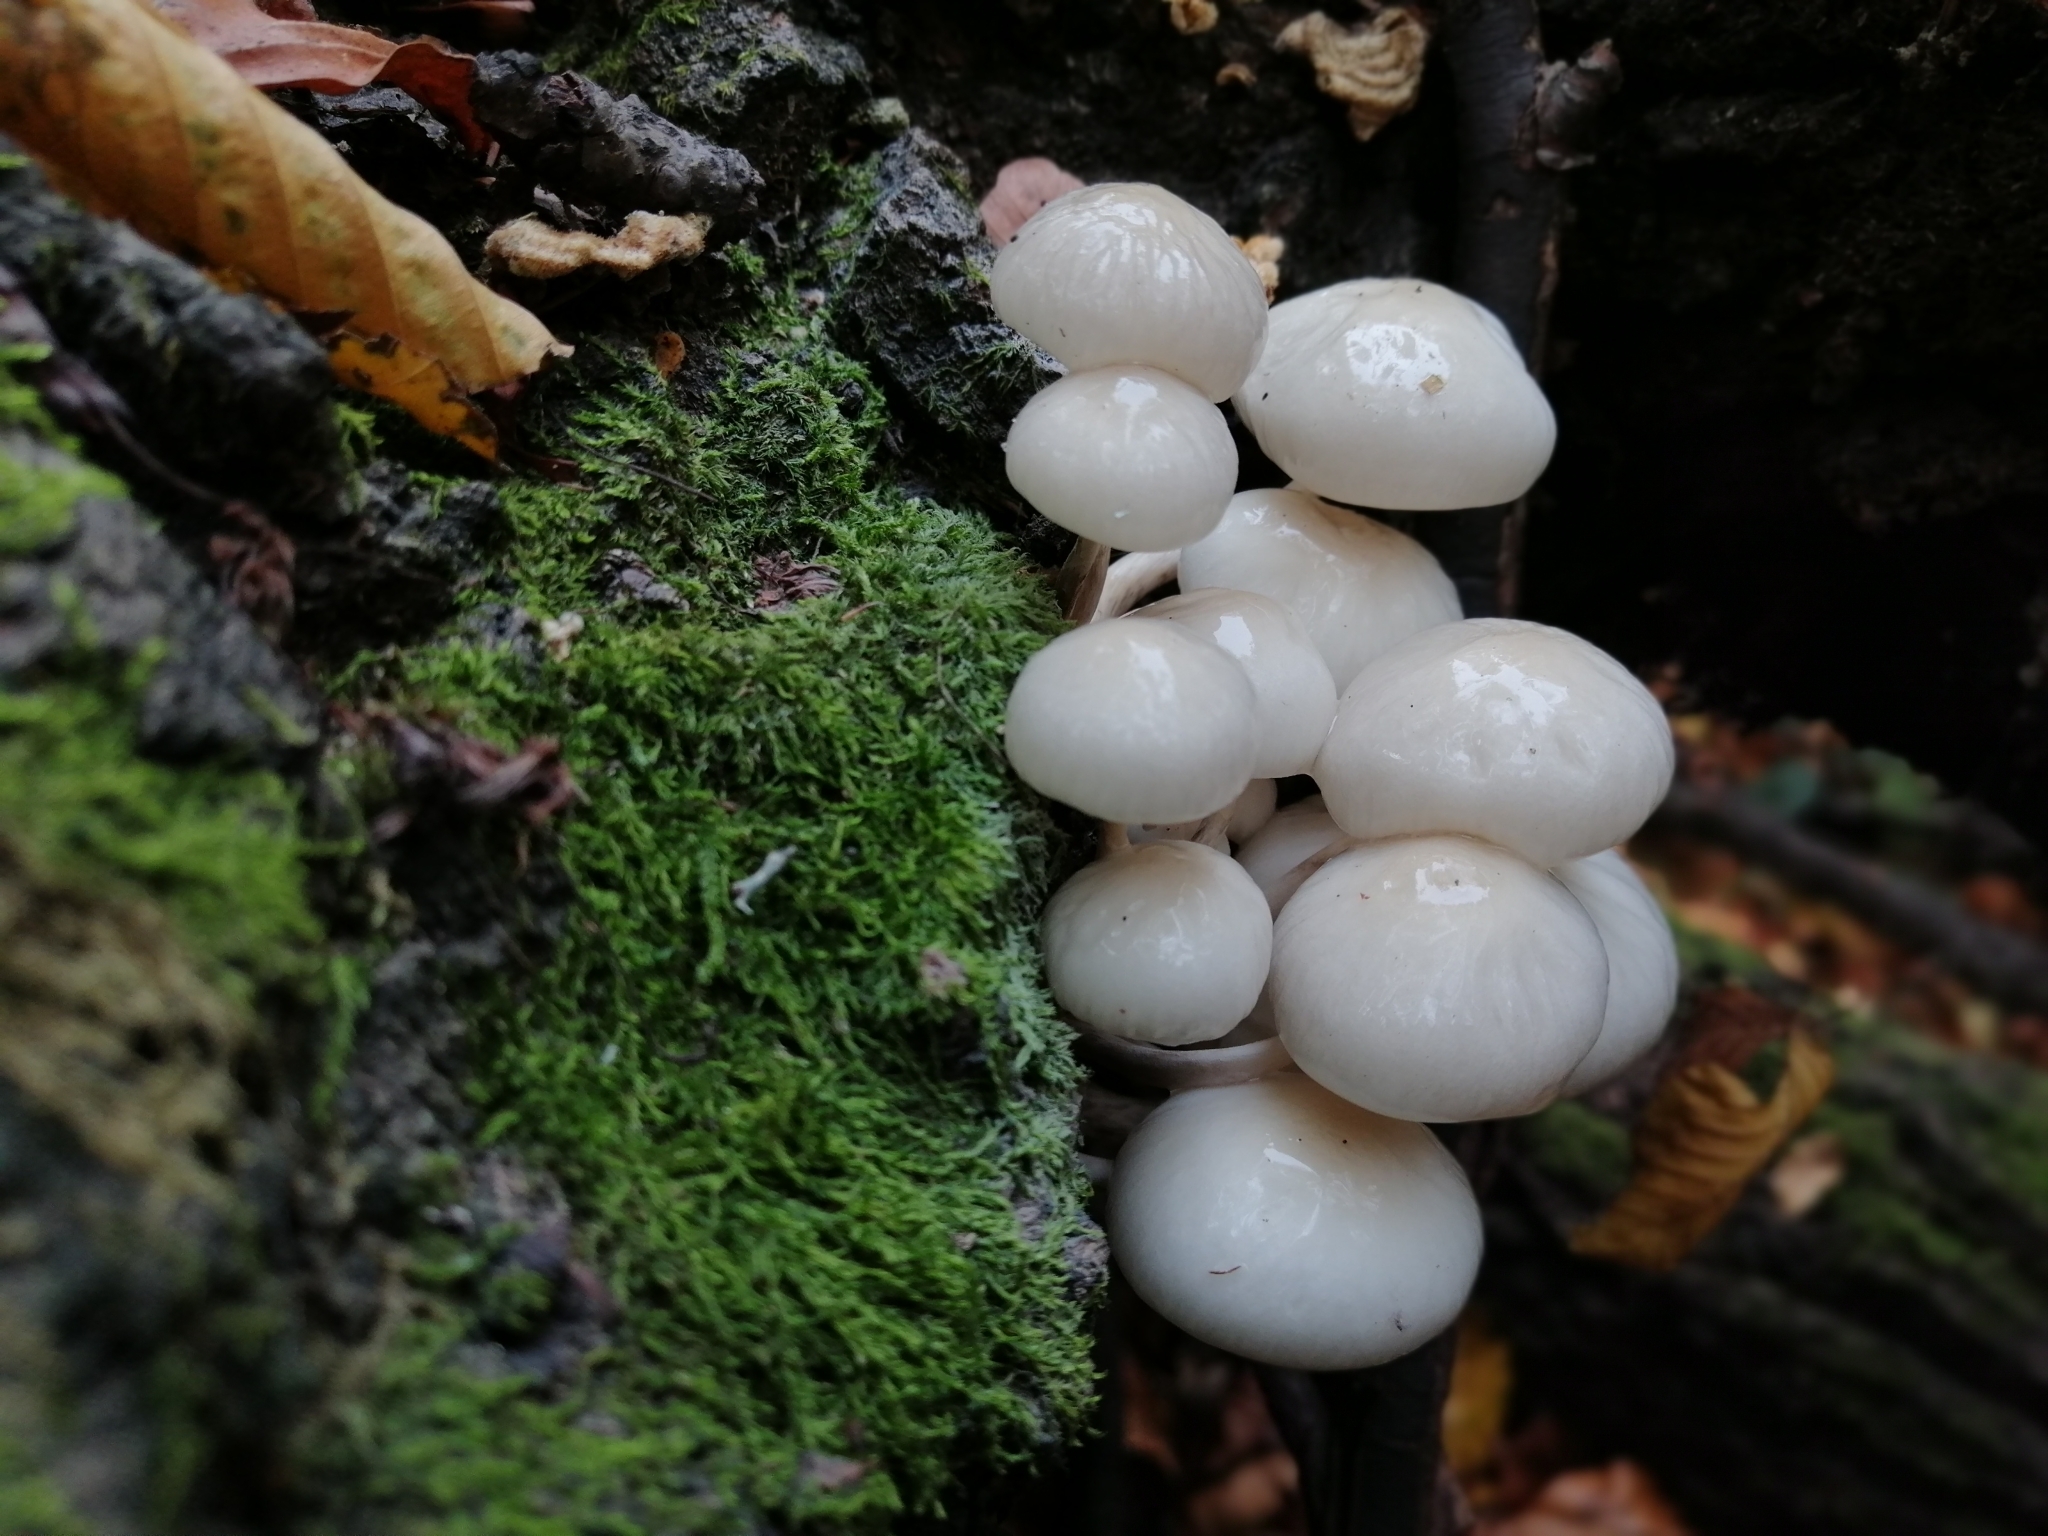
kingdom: Fungi
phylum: Basidiomycota
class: Agaricomycetes
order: Agaricales
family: Physalacriaceae
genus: Mucidula
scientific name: Mucidula mucida
